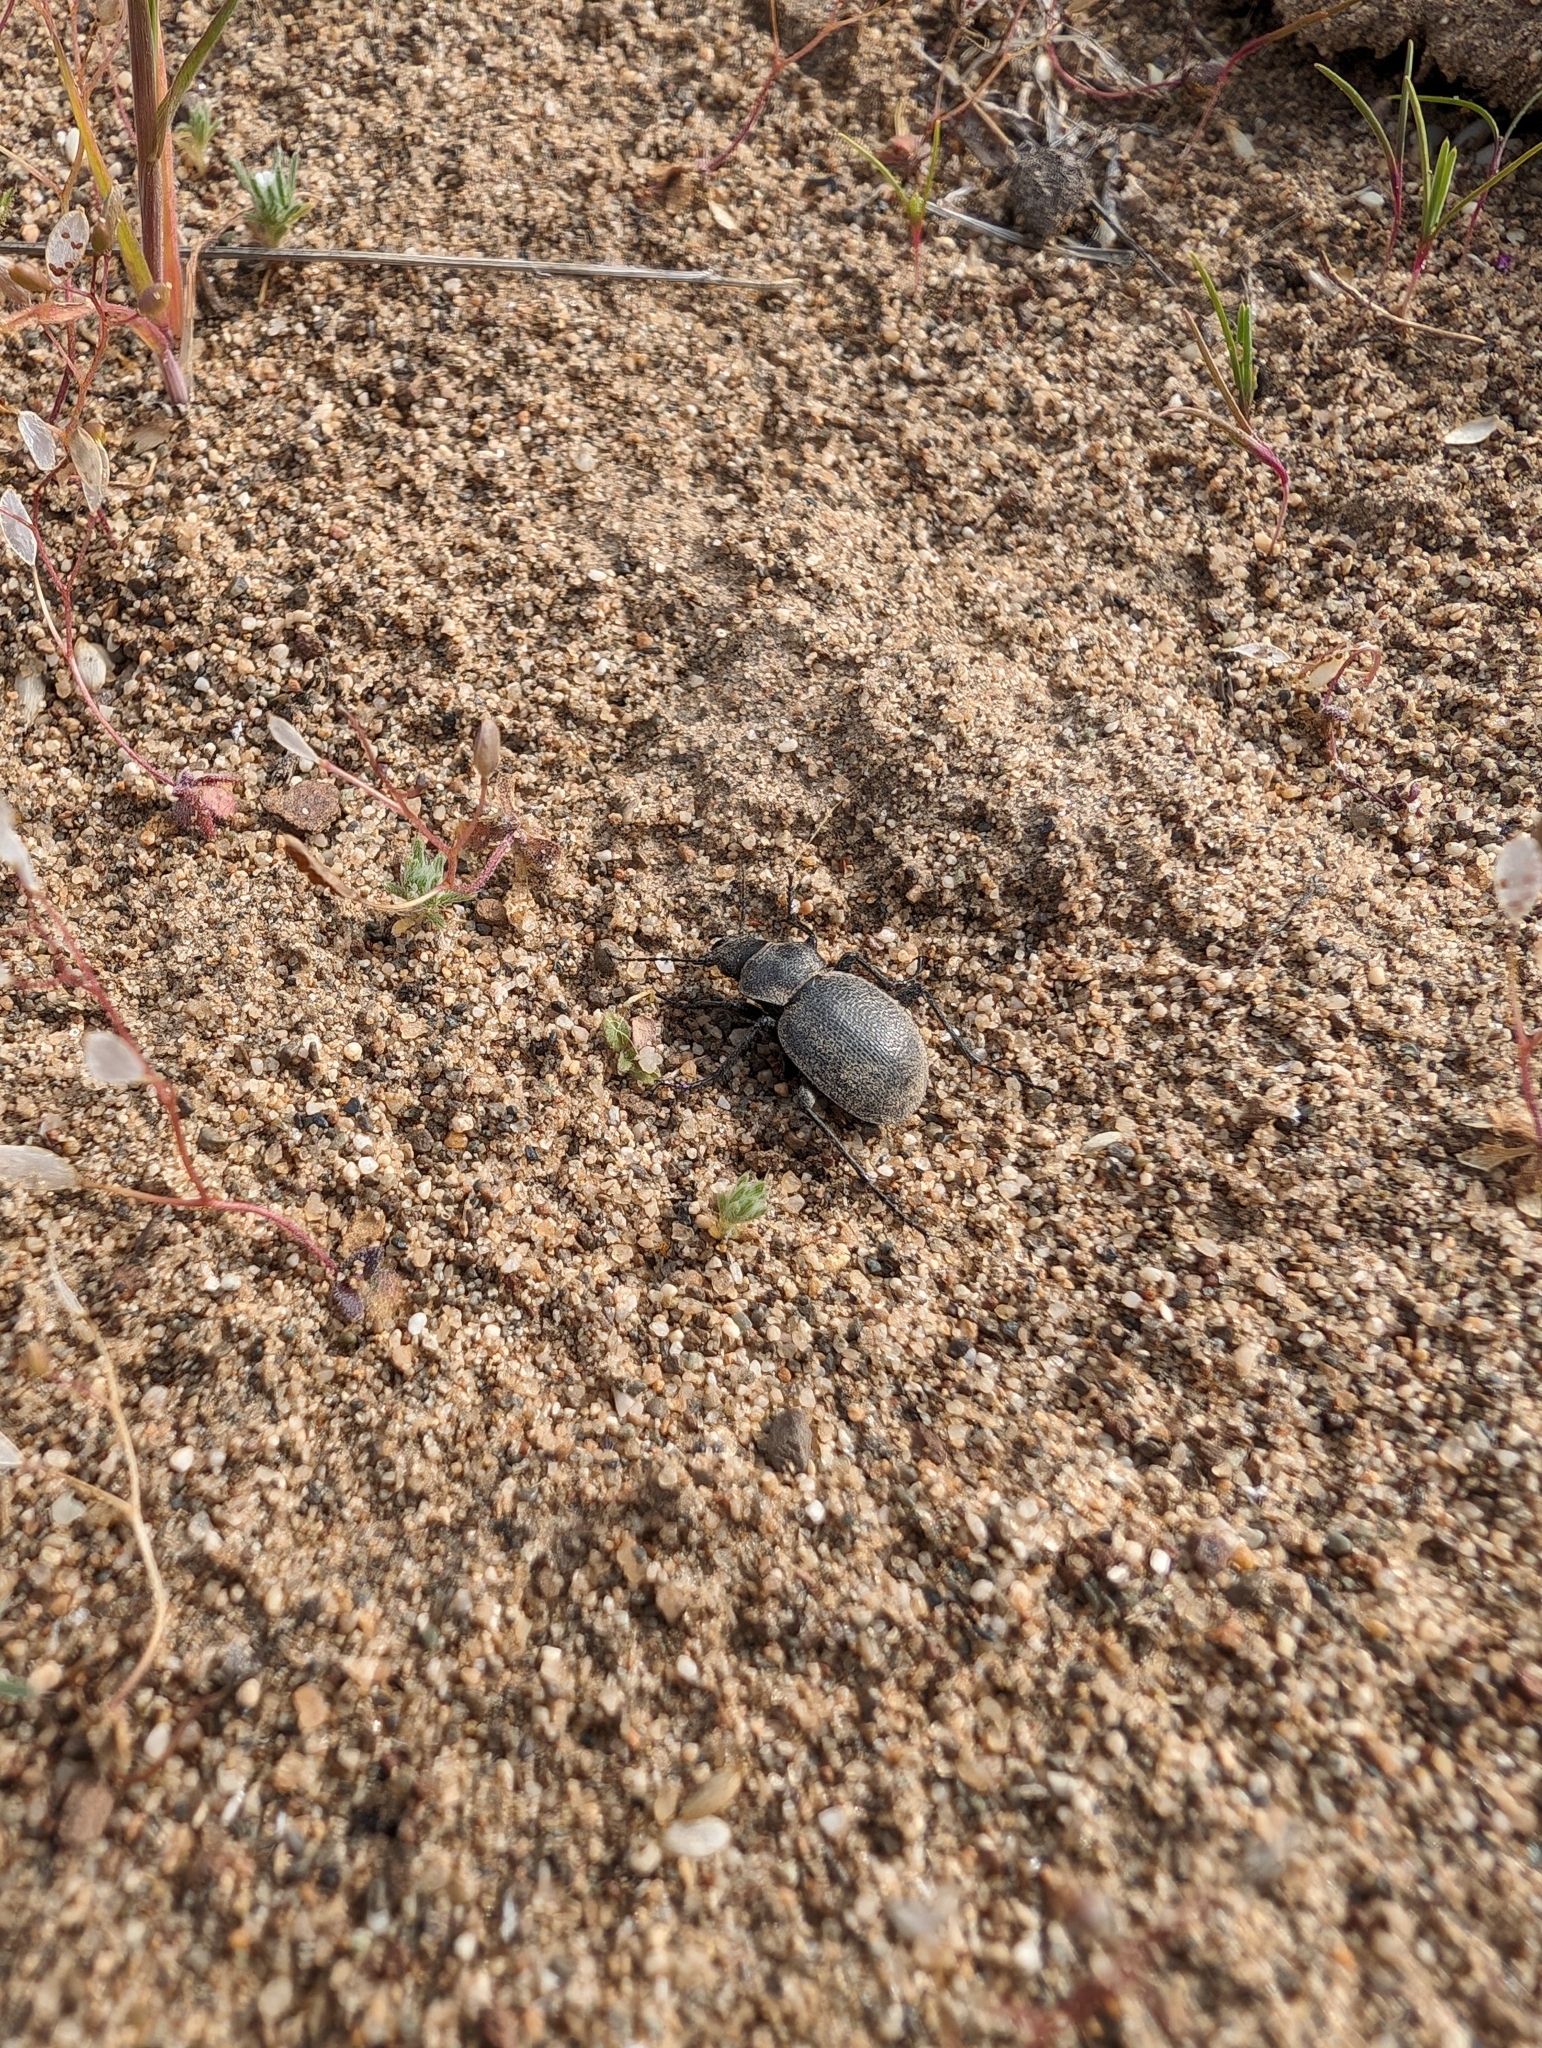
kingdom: Animalia
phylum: Arthropoda
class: Insecta
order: Coleoptera
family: Carabidae
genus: Calosoma
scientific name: Calosoma luxatum
